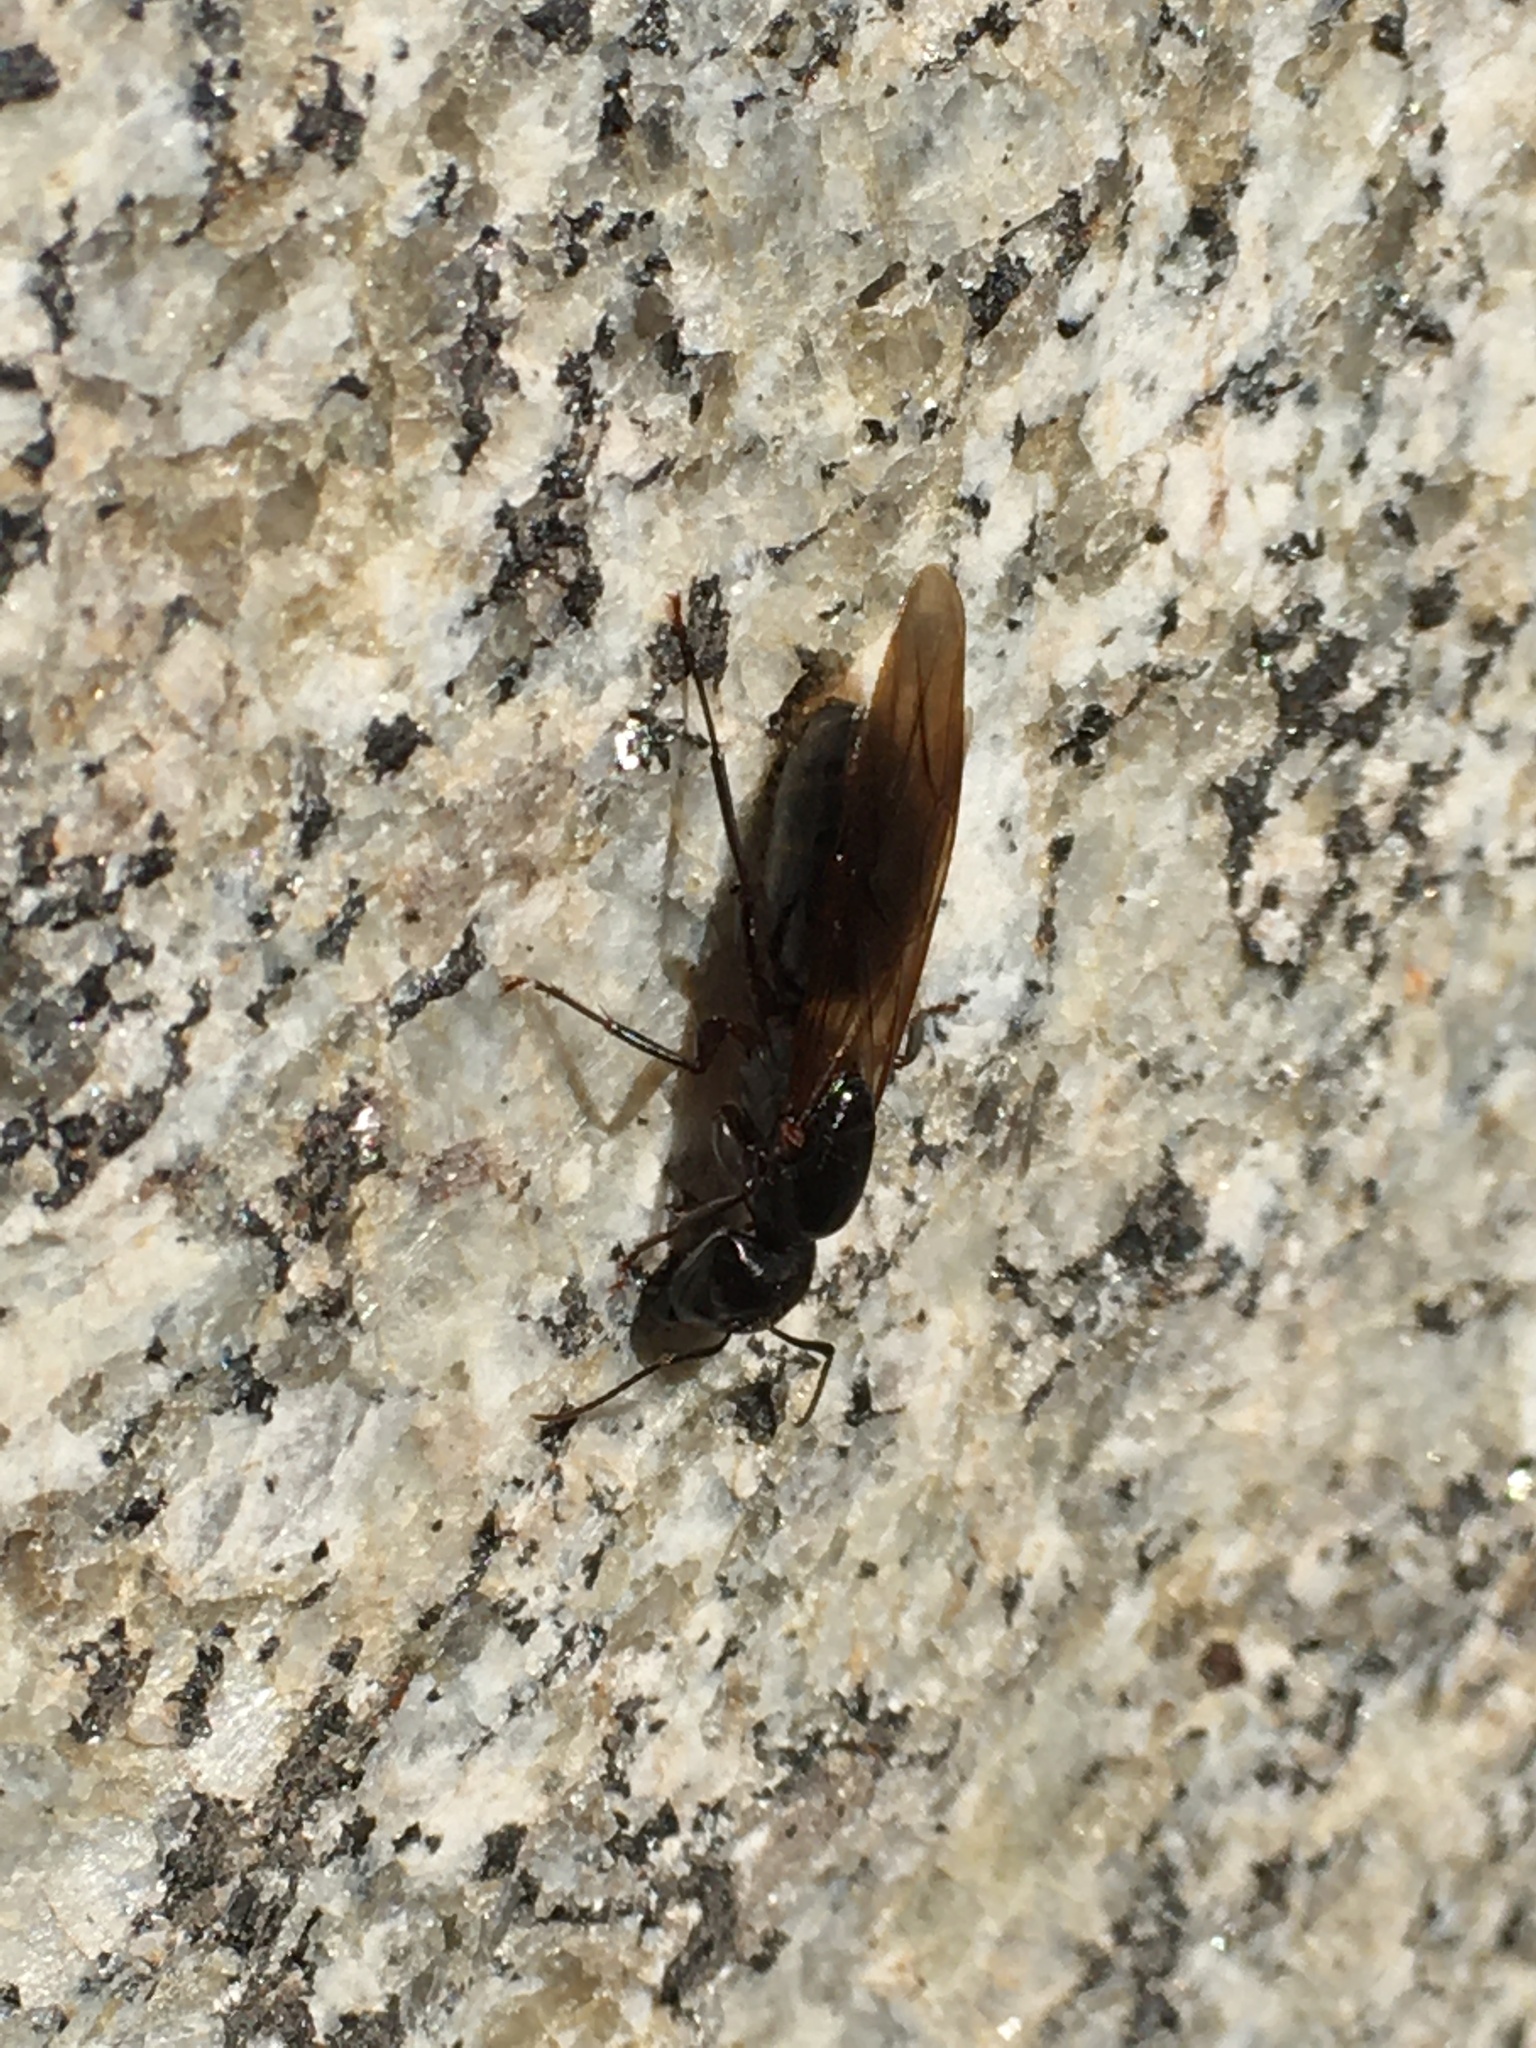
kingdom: Animalia
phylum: Arthropoda
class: Insecta
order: Hymenoptera
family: Formicidae
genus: Camponotus
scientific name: Camponotus pennsylvanicus
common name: Black carpenter ant
